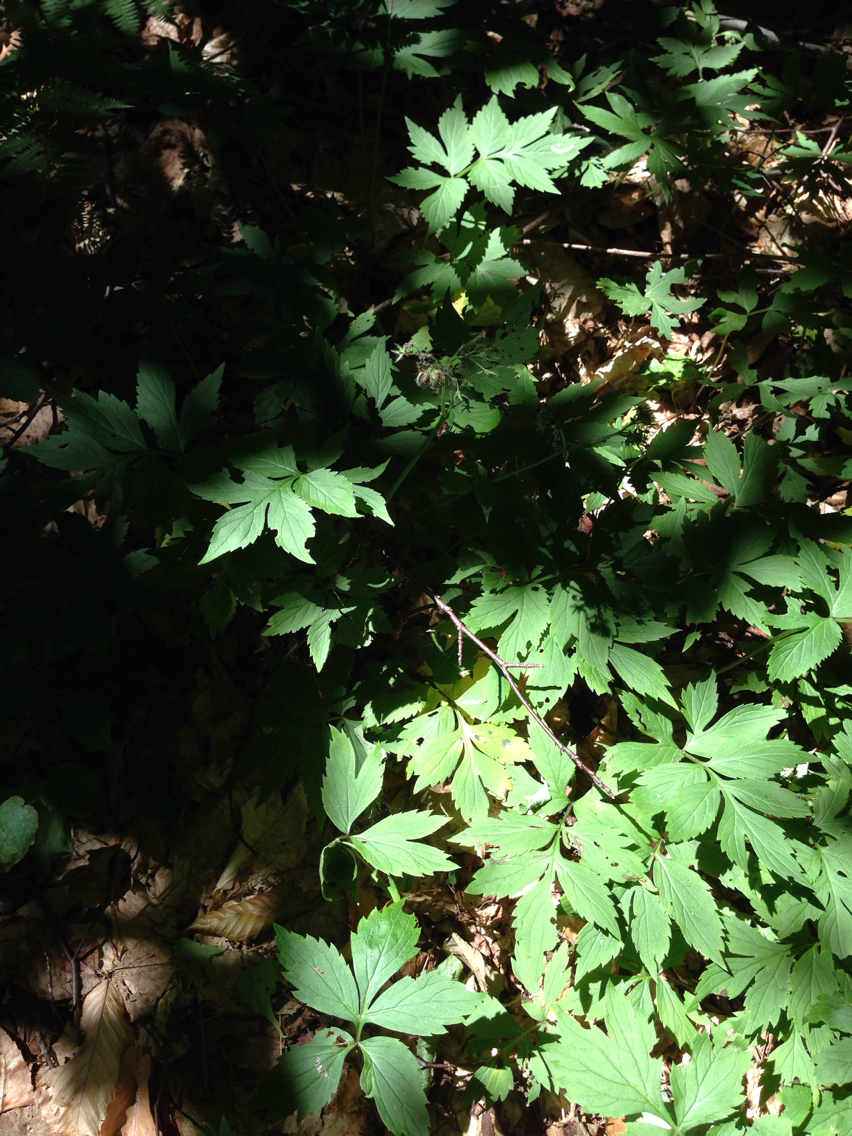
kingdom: Plantae
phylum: Tracheophyta
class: Magnoliopsida
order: Boraginales
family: Hydrophyllaceae
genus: Hydrophyllum
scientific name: Hydrophyllum virginianum
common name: Virginia waterleaf
